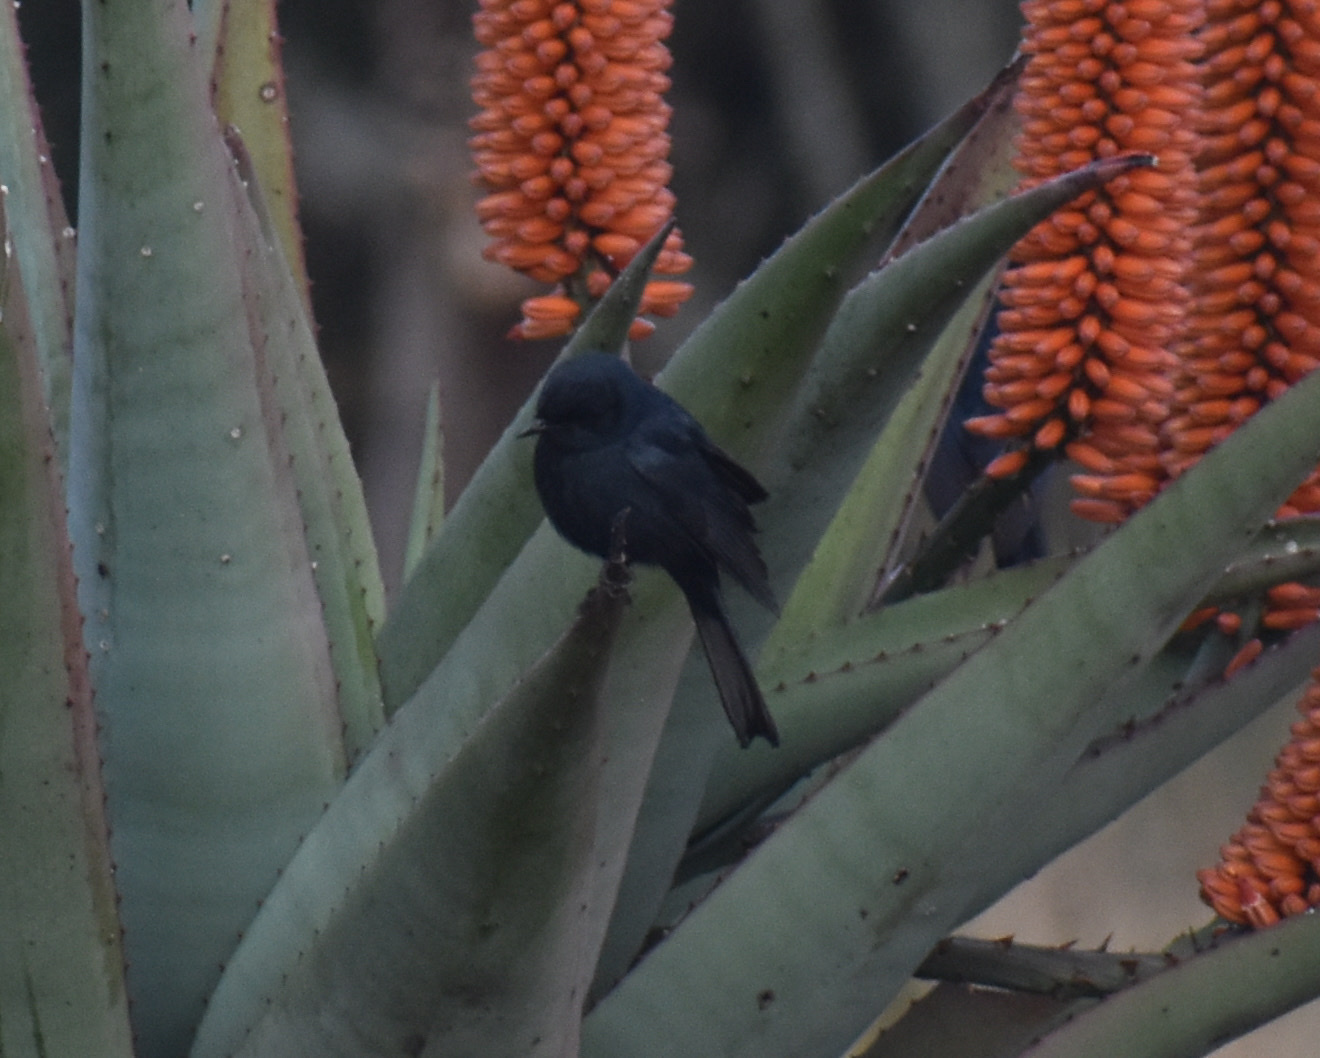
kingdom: Animalia
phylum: Chordata
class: Aves
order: Passeriformes
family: Muscicapidae
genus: Melaenornis
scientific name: Melaenornis pammelaina
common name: Southern black flycatcher
